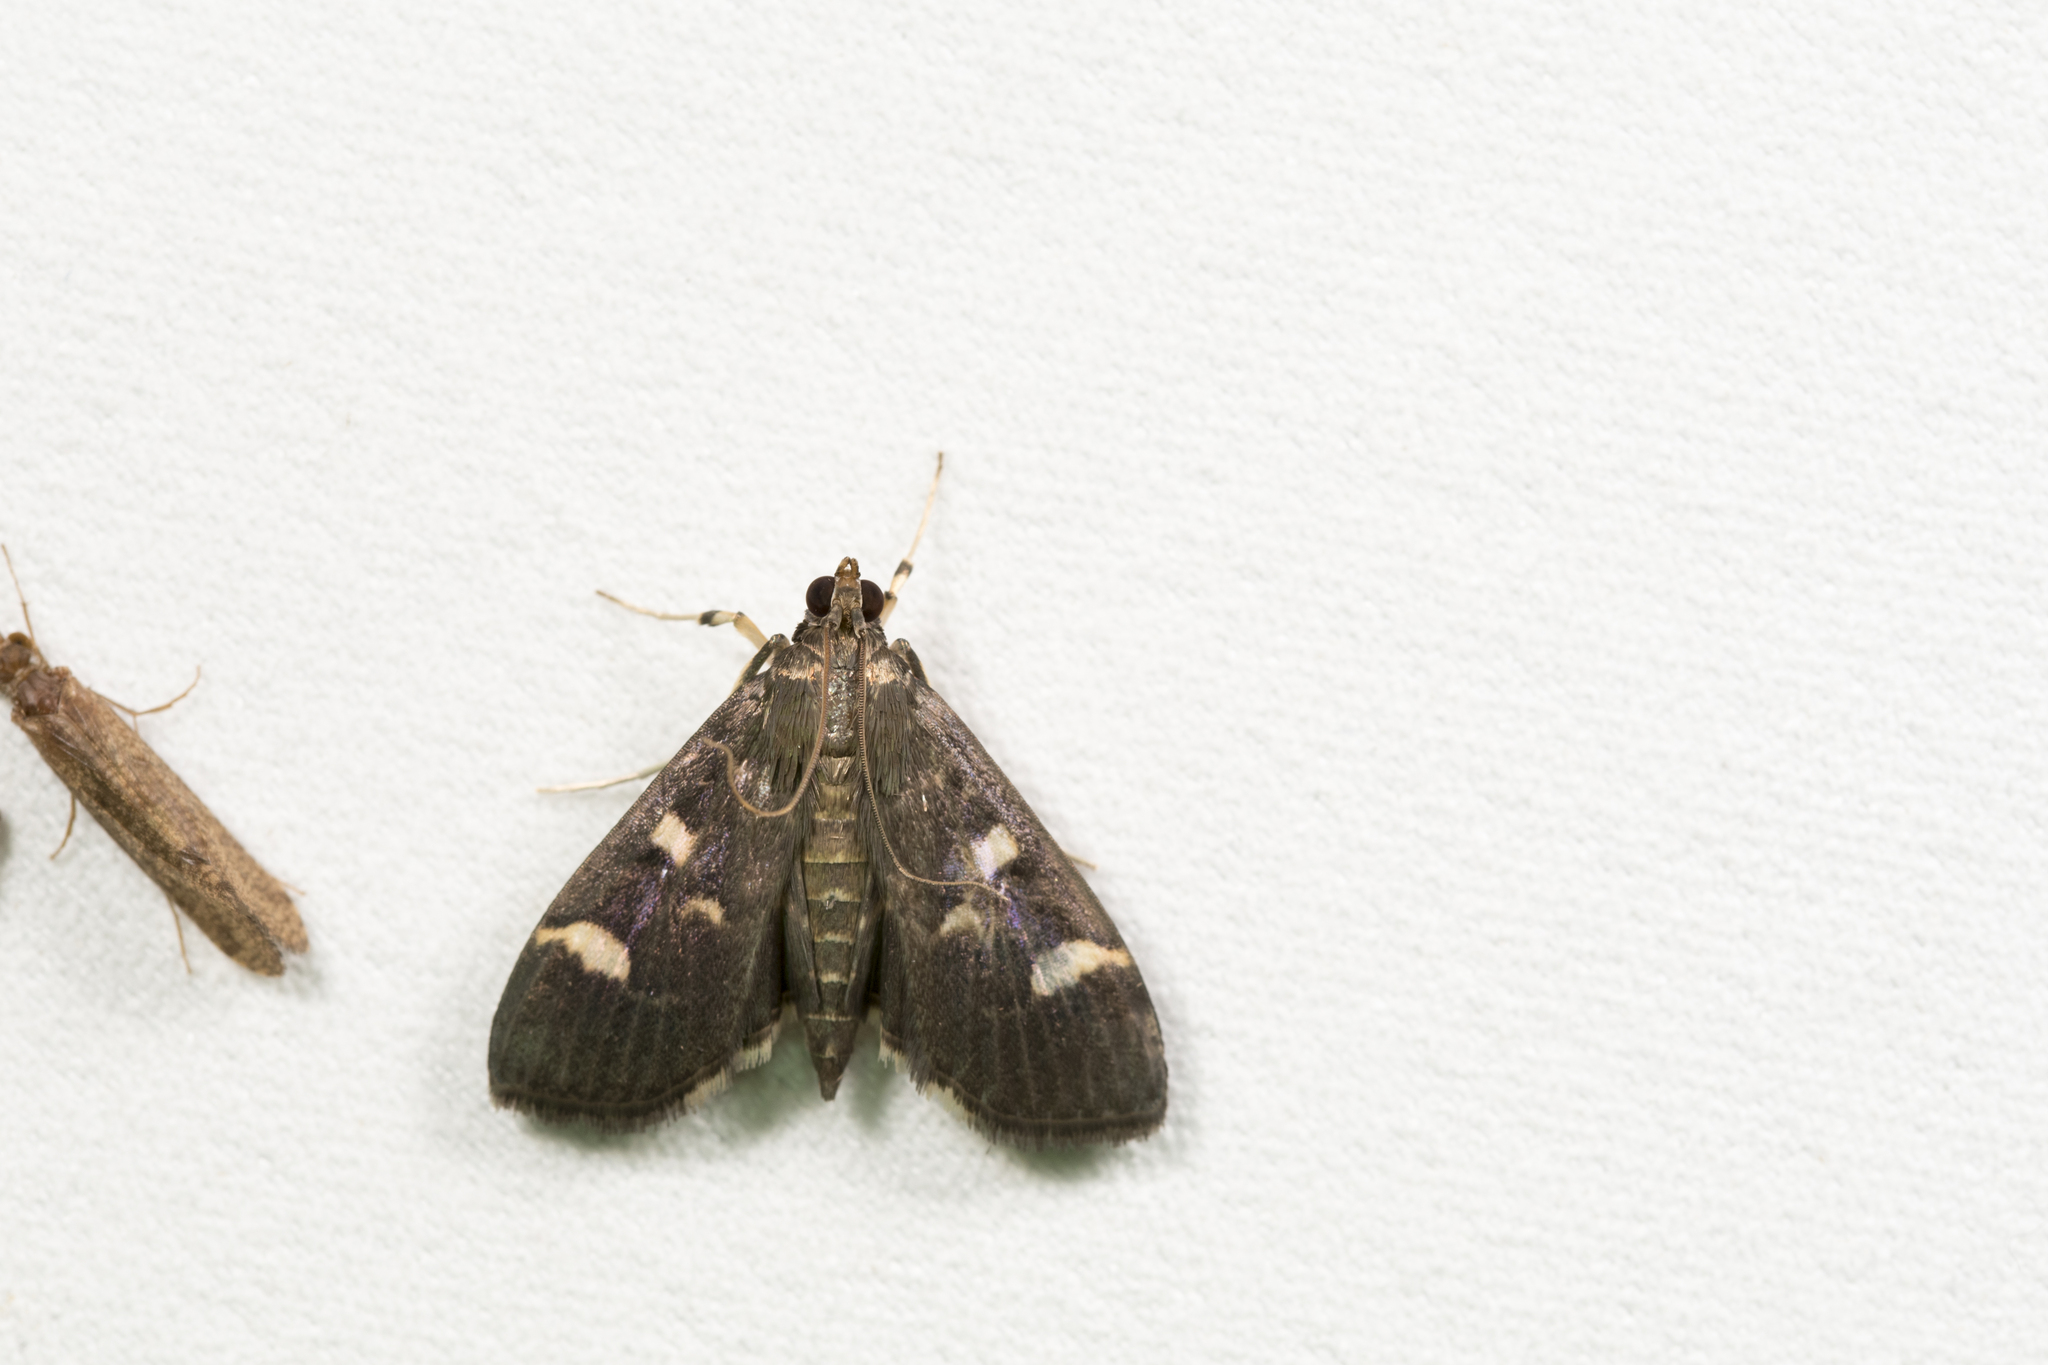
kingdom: Animalia
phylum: Arthropoda
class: Insecta
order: Lepidoptera
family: Crambidae
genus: Herpetogramma
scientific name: Herpetogramma luctuosalis
